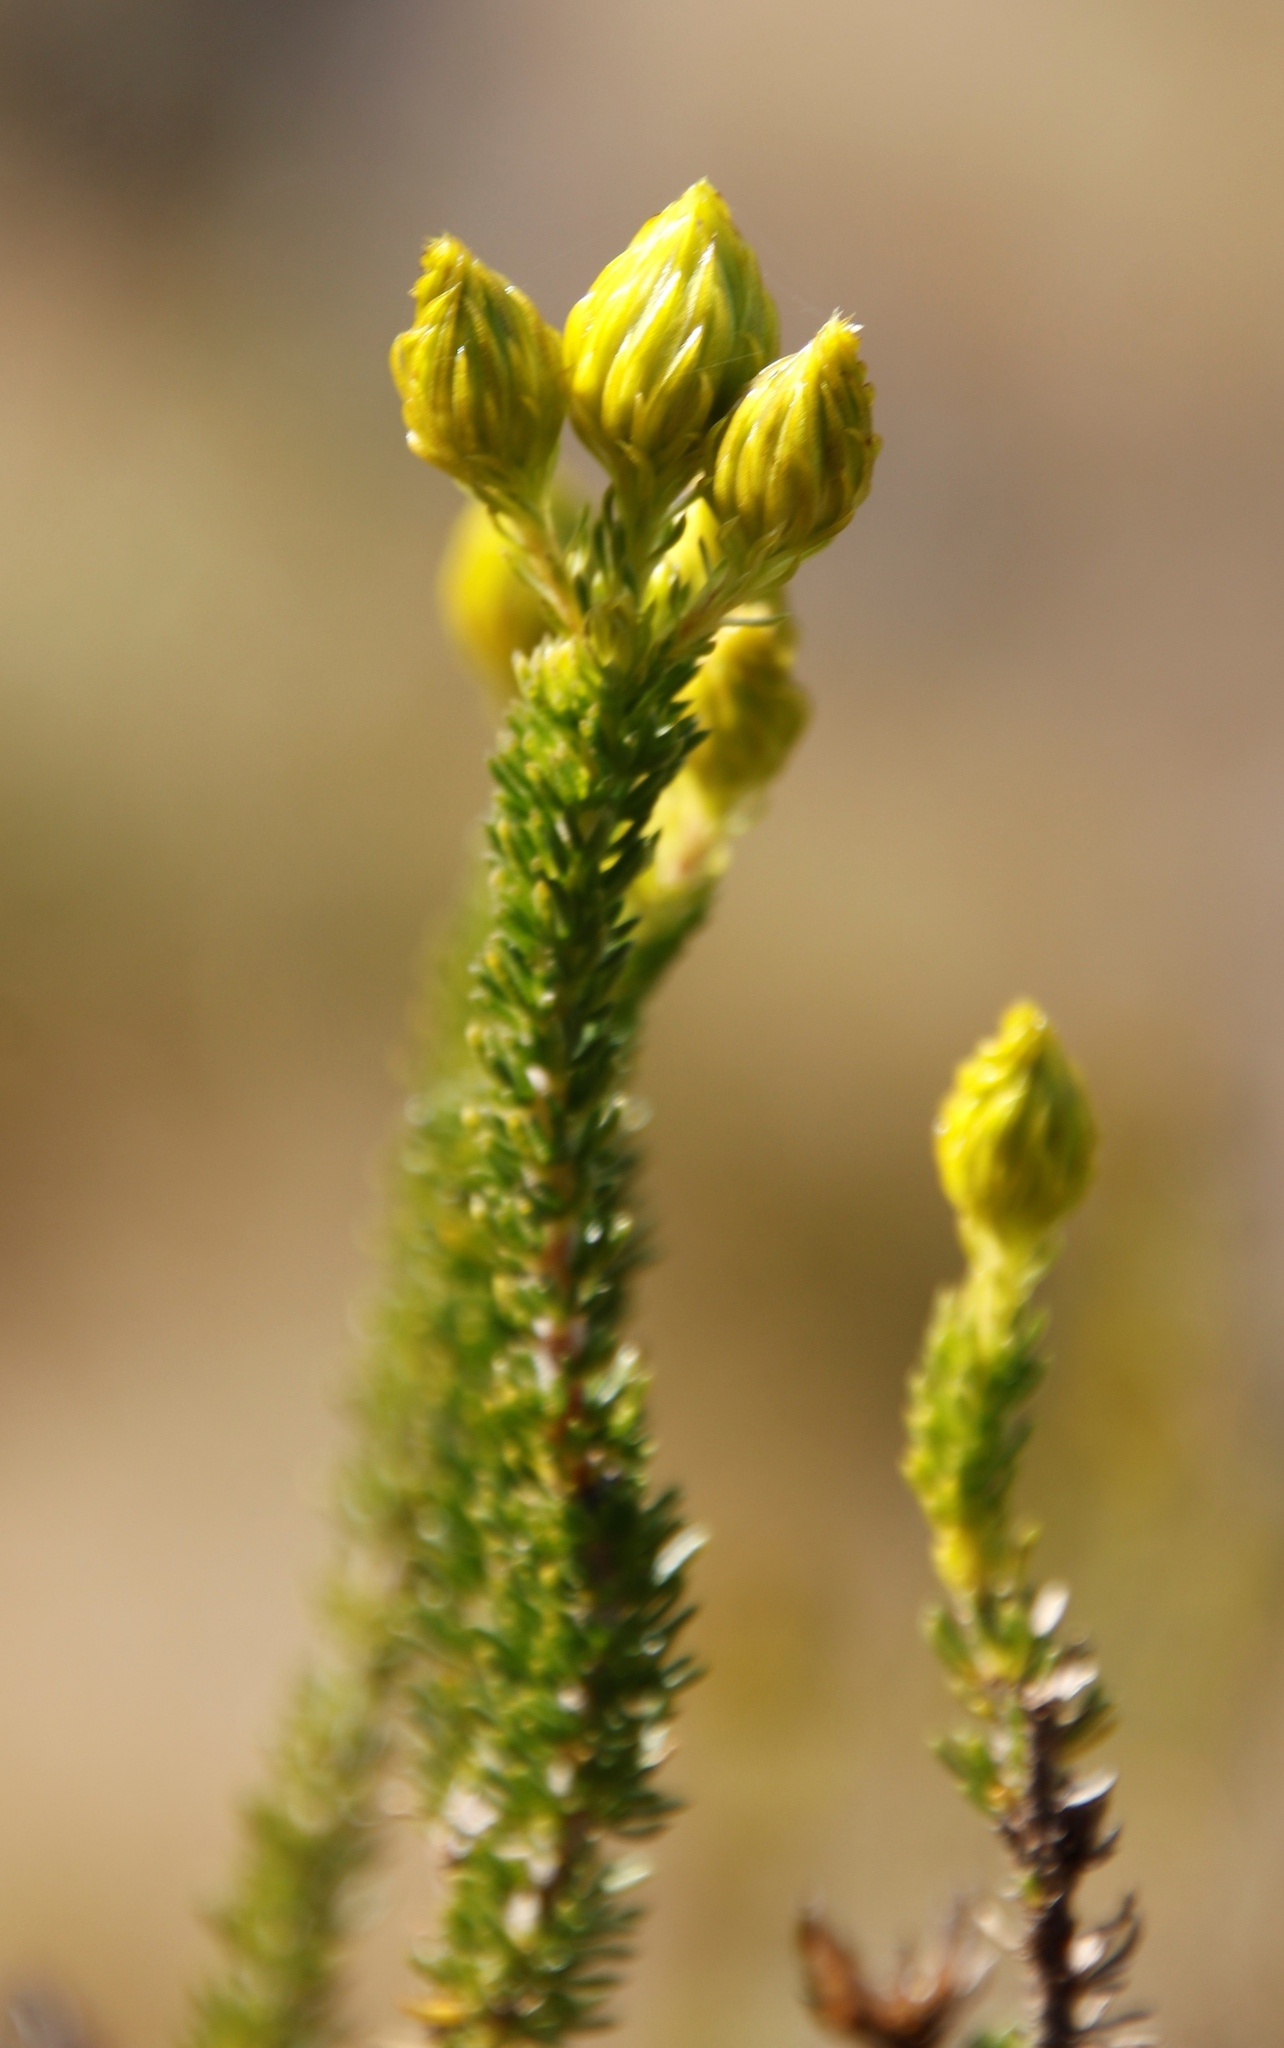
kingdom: Plantae
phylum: Tracheophyta
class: Magnoliopsida
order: Asterales
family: Asteraceae
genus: Pteronia
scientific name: Pteronia camphorata
